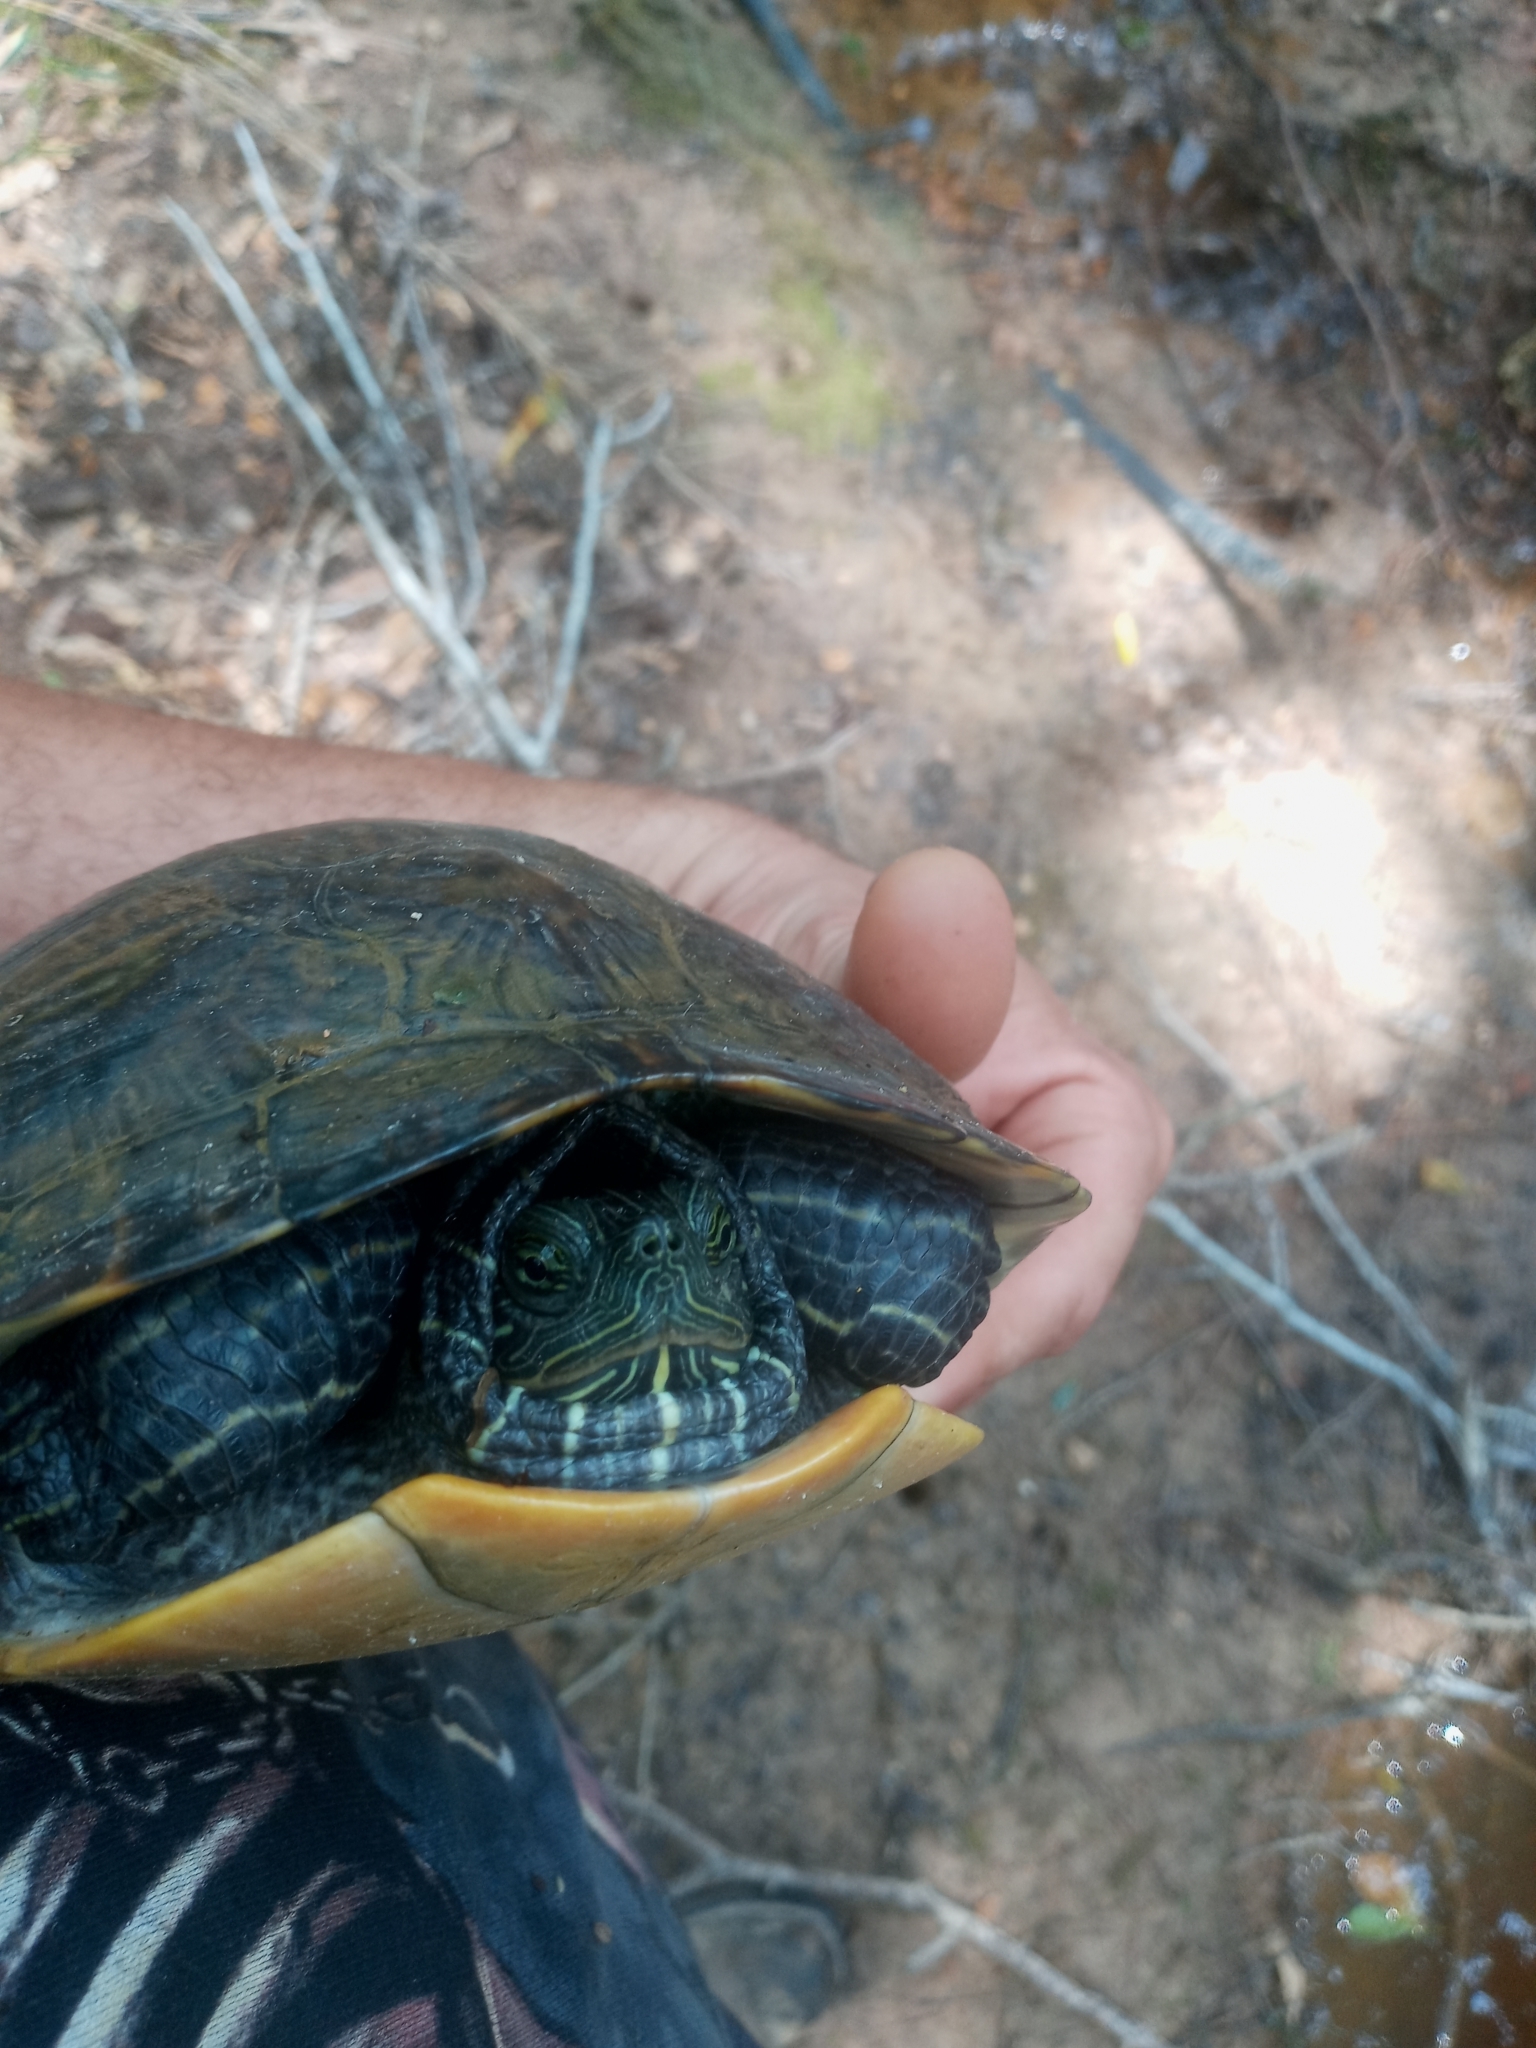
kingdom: Animalia
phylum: Chordata
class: Testudines
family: Emydidae
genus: Pseudemys
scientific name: Pseudemys concinna
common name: Eastern river cooter
